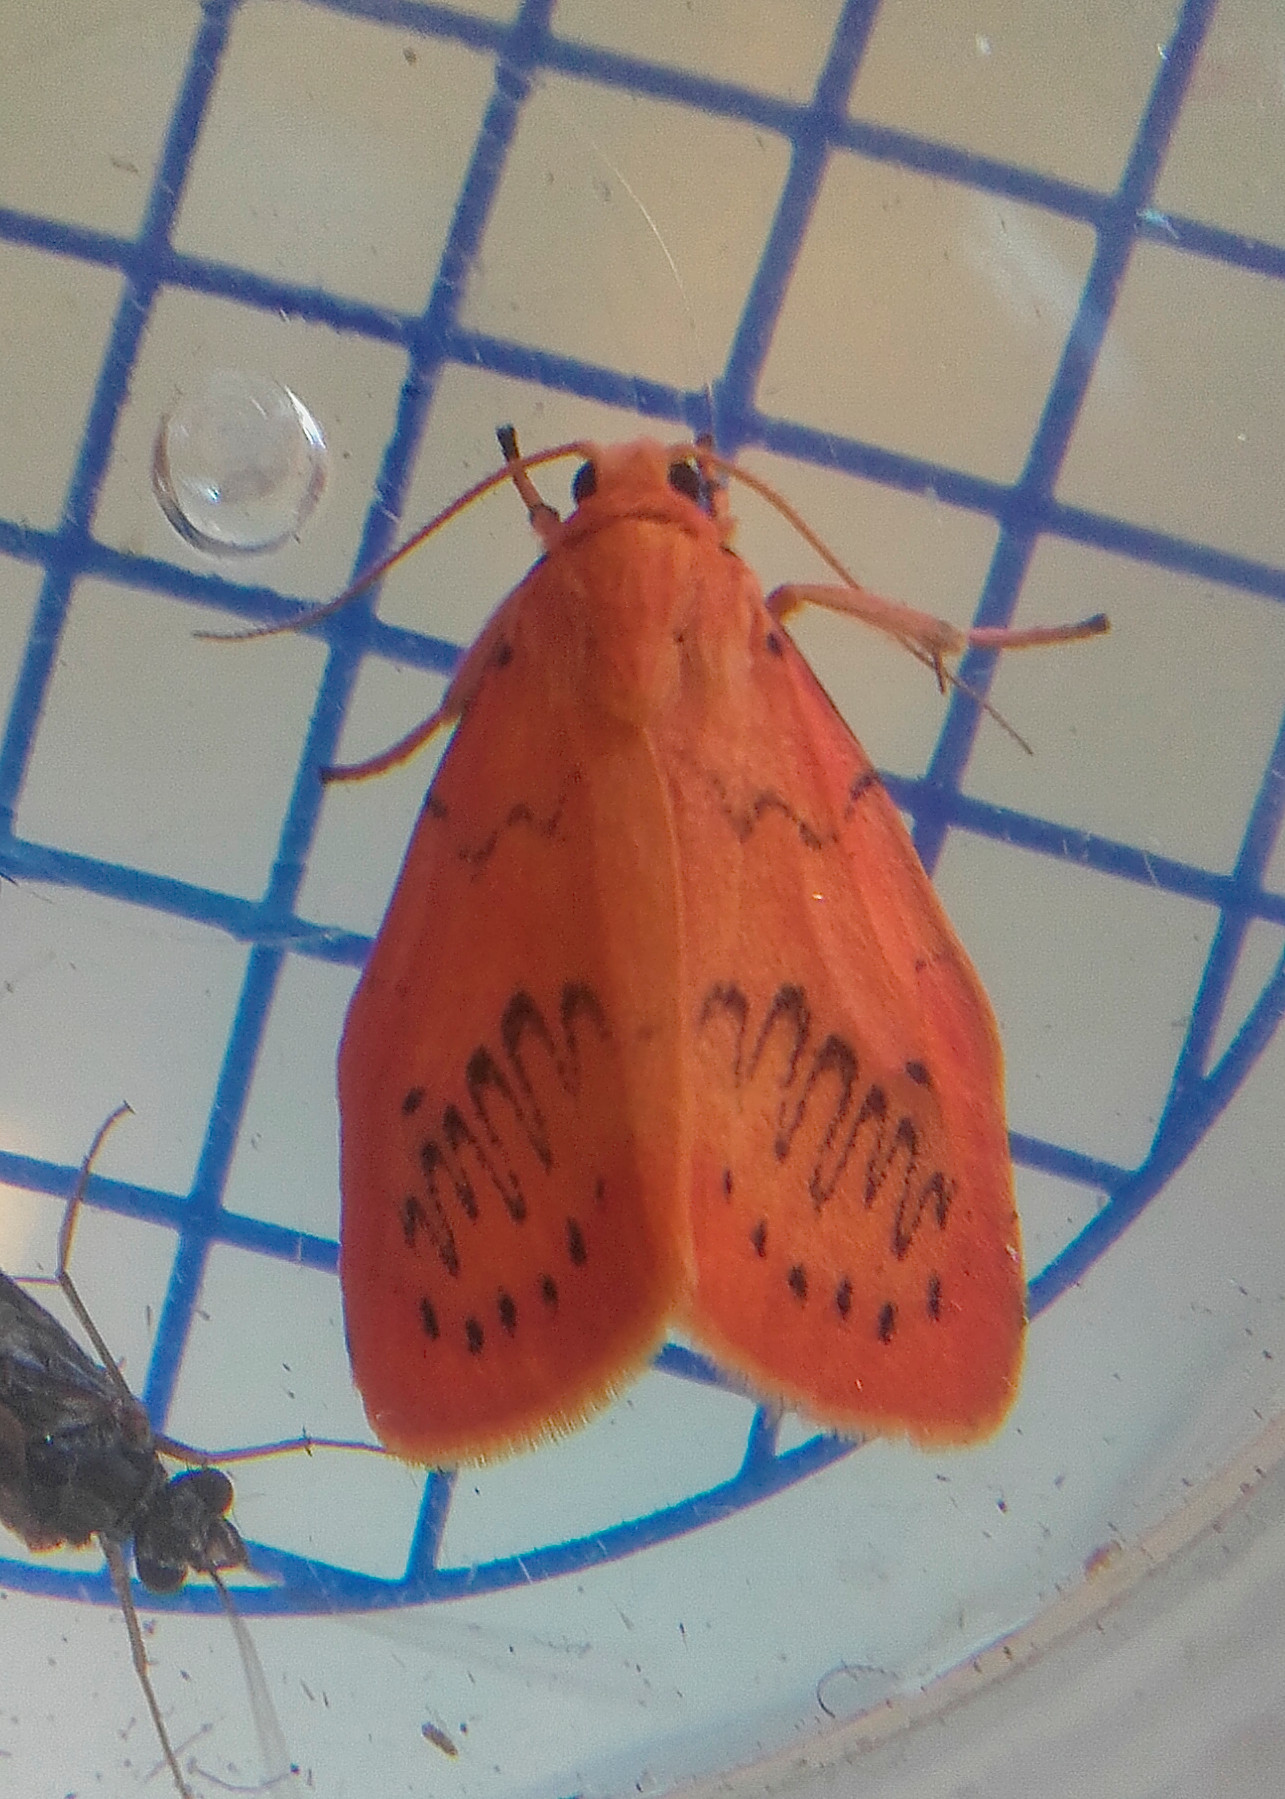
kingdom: Animalia
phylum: Arthropoda
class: Insecta
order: Lepidoptera
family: Erebidae
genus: Miltochrista
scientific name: Miltochrista miniata
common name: Rosy footman
